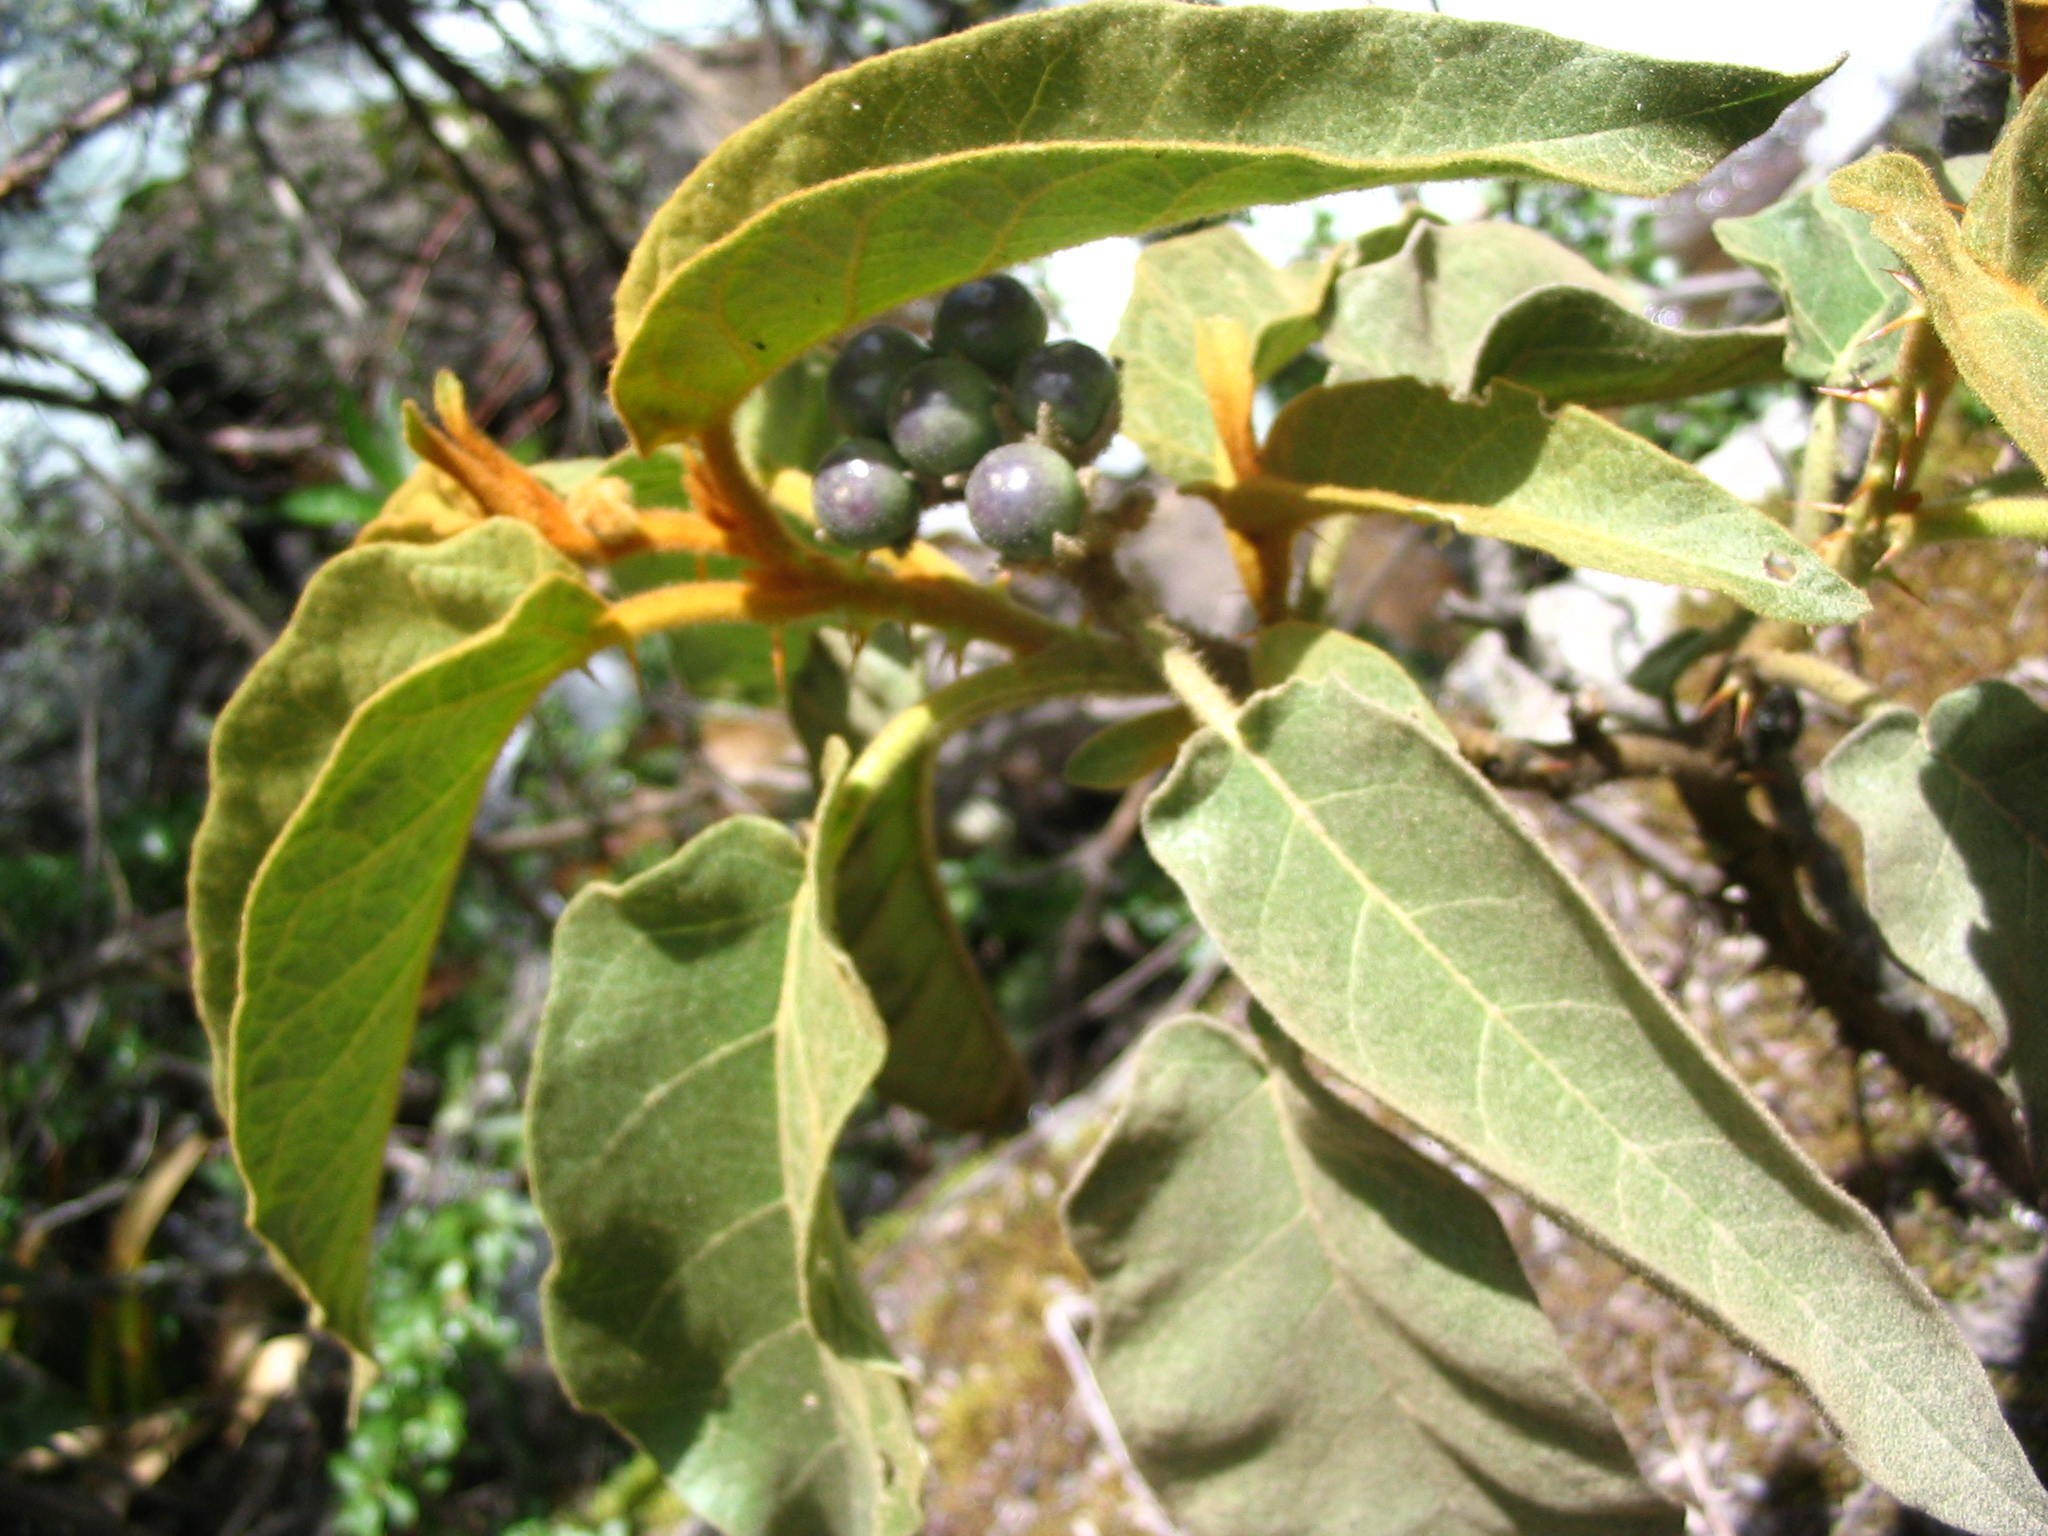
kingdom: Plantae
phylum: Tracheophyta
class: Magnoliopsida
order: Solanales
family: Solanaceae
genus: Solanum
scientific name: Solanum glutinosum
